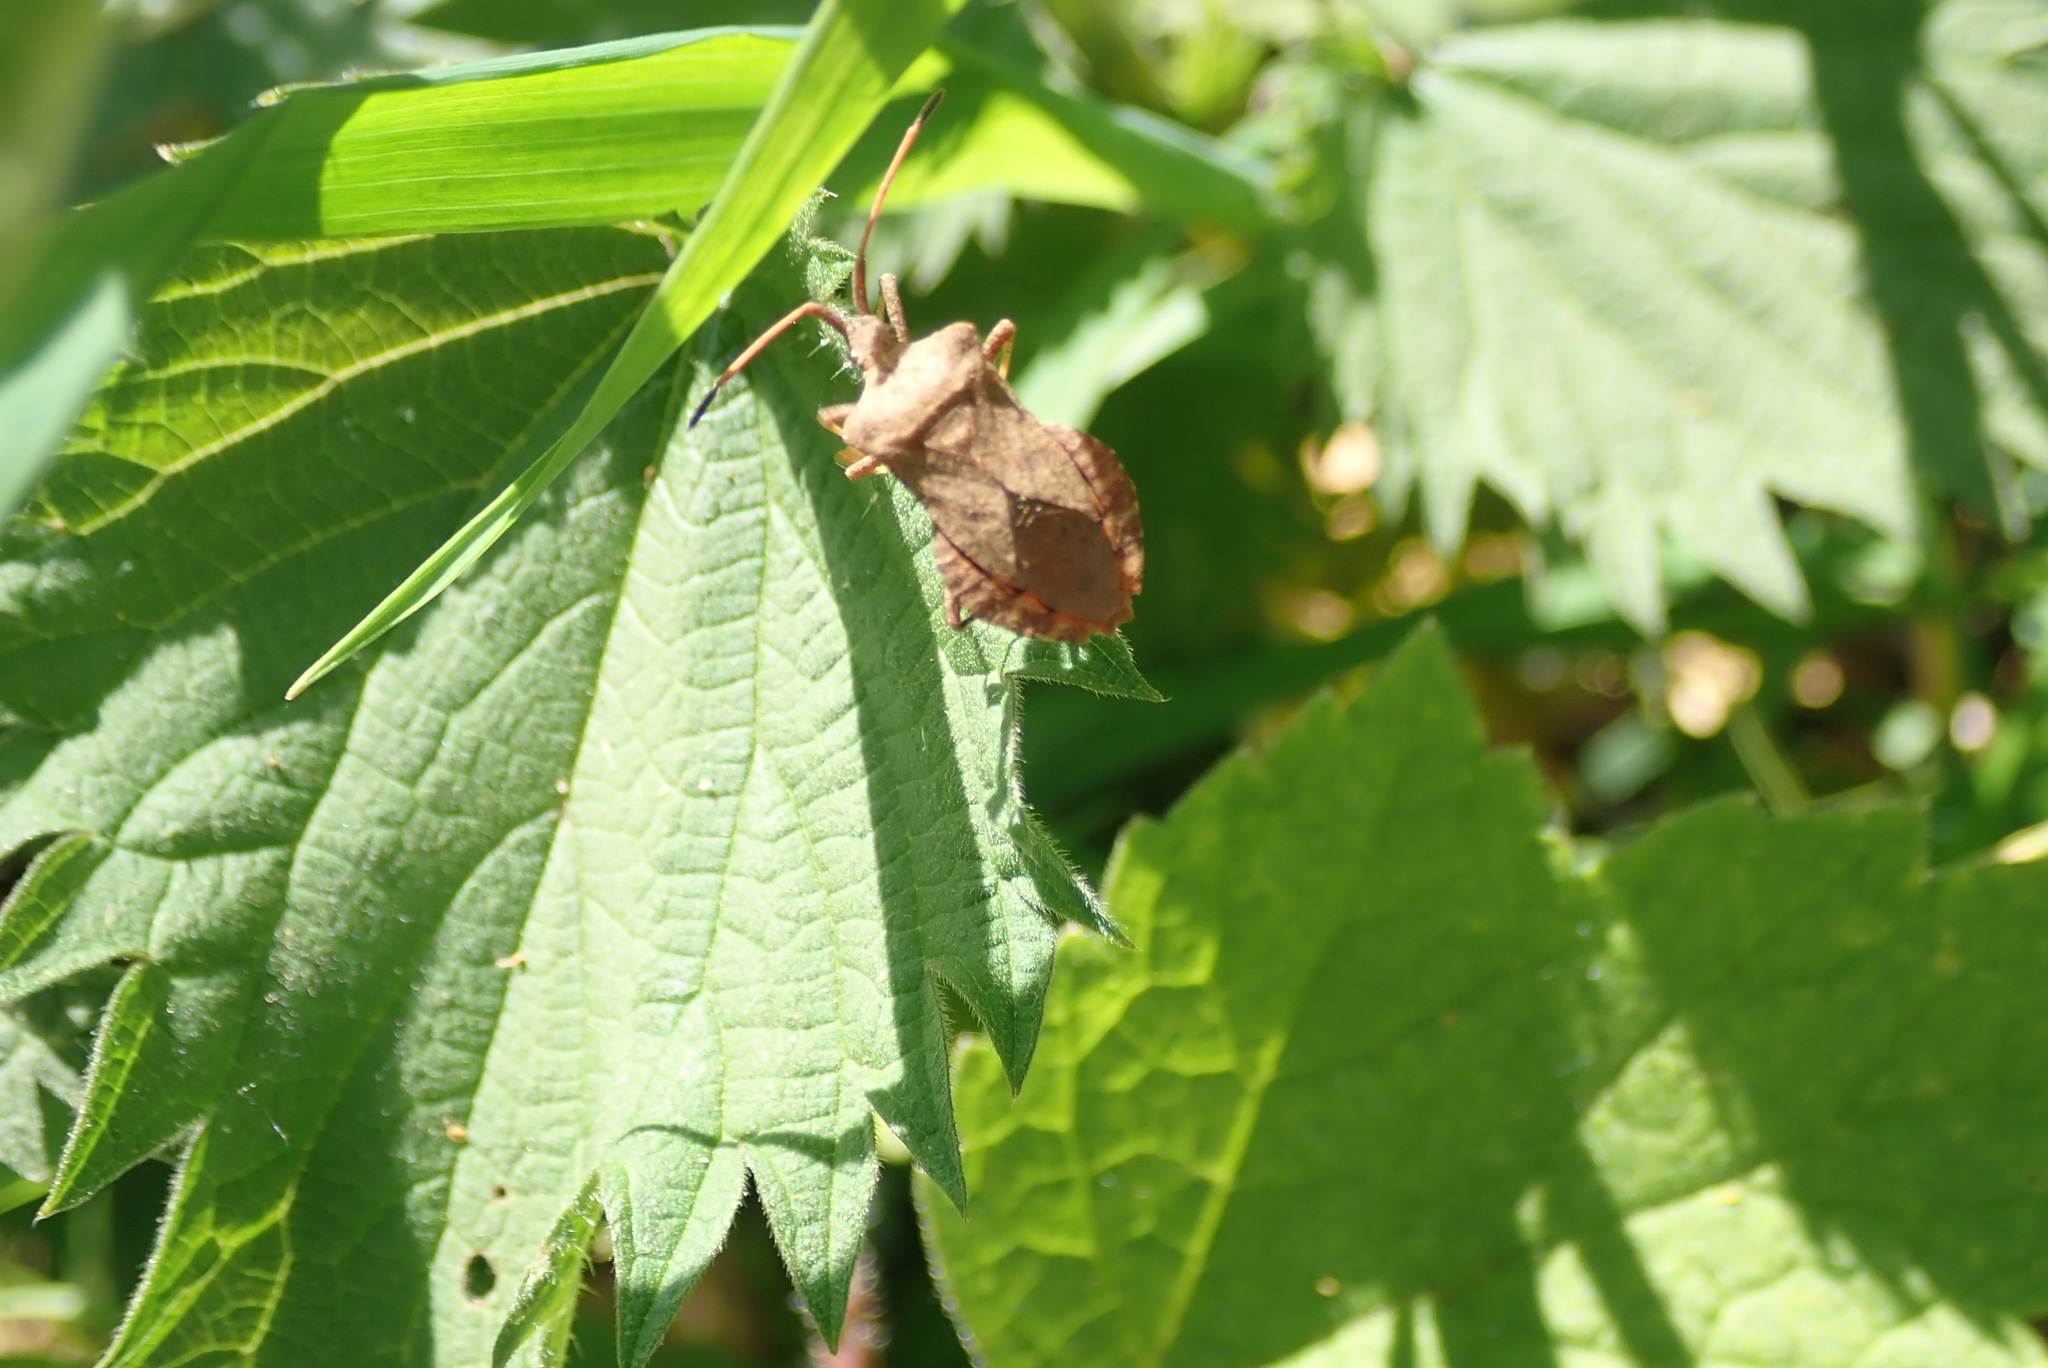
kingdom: Animalia
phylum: Arthropoda
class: Insecta
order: Hemiptera
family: Coreidae
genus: Coreus
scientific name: Coreus marginatus
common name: Dock bug
